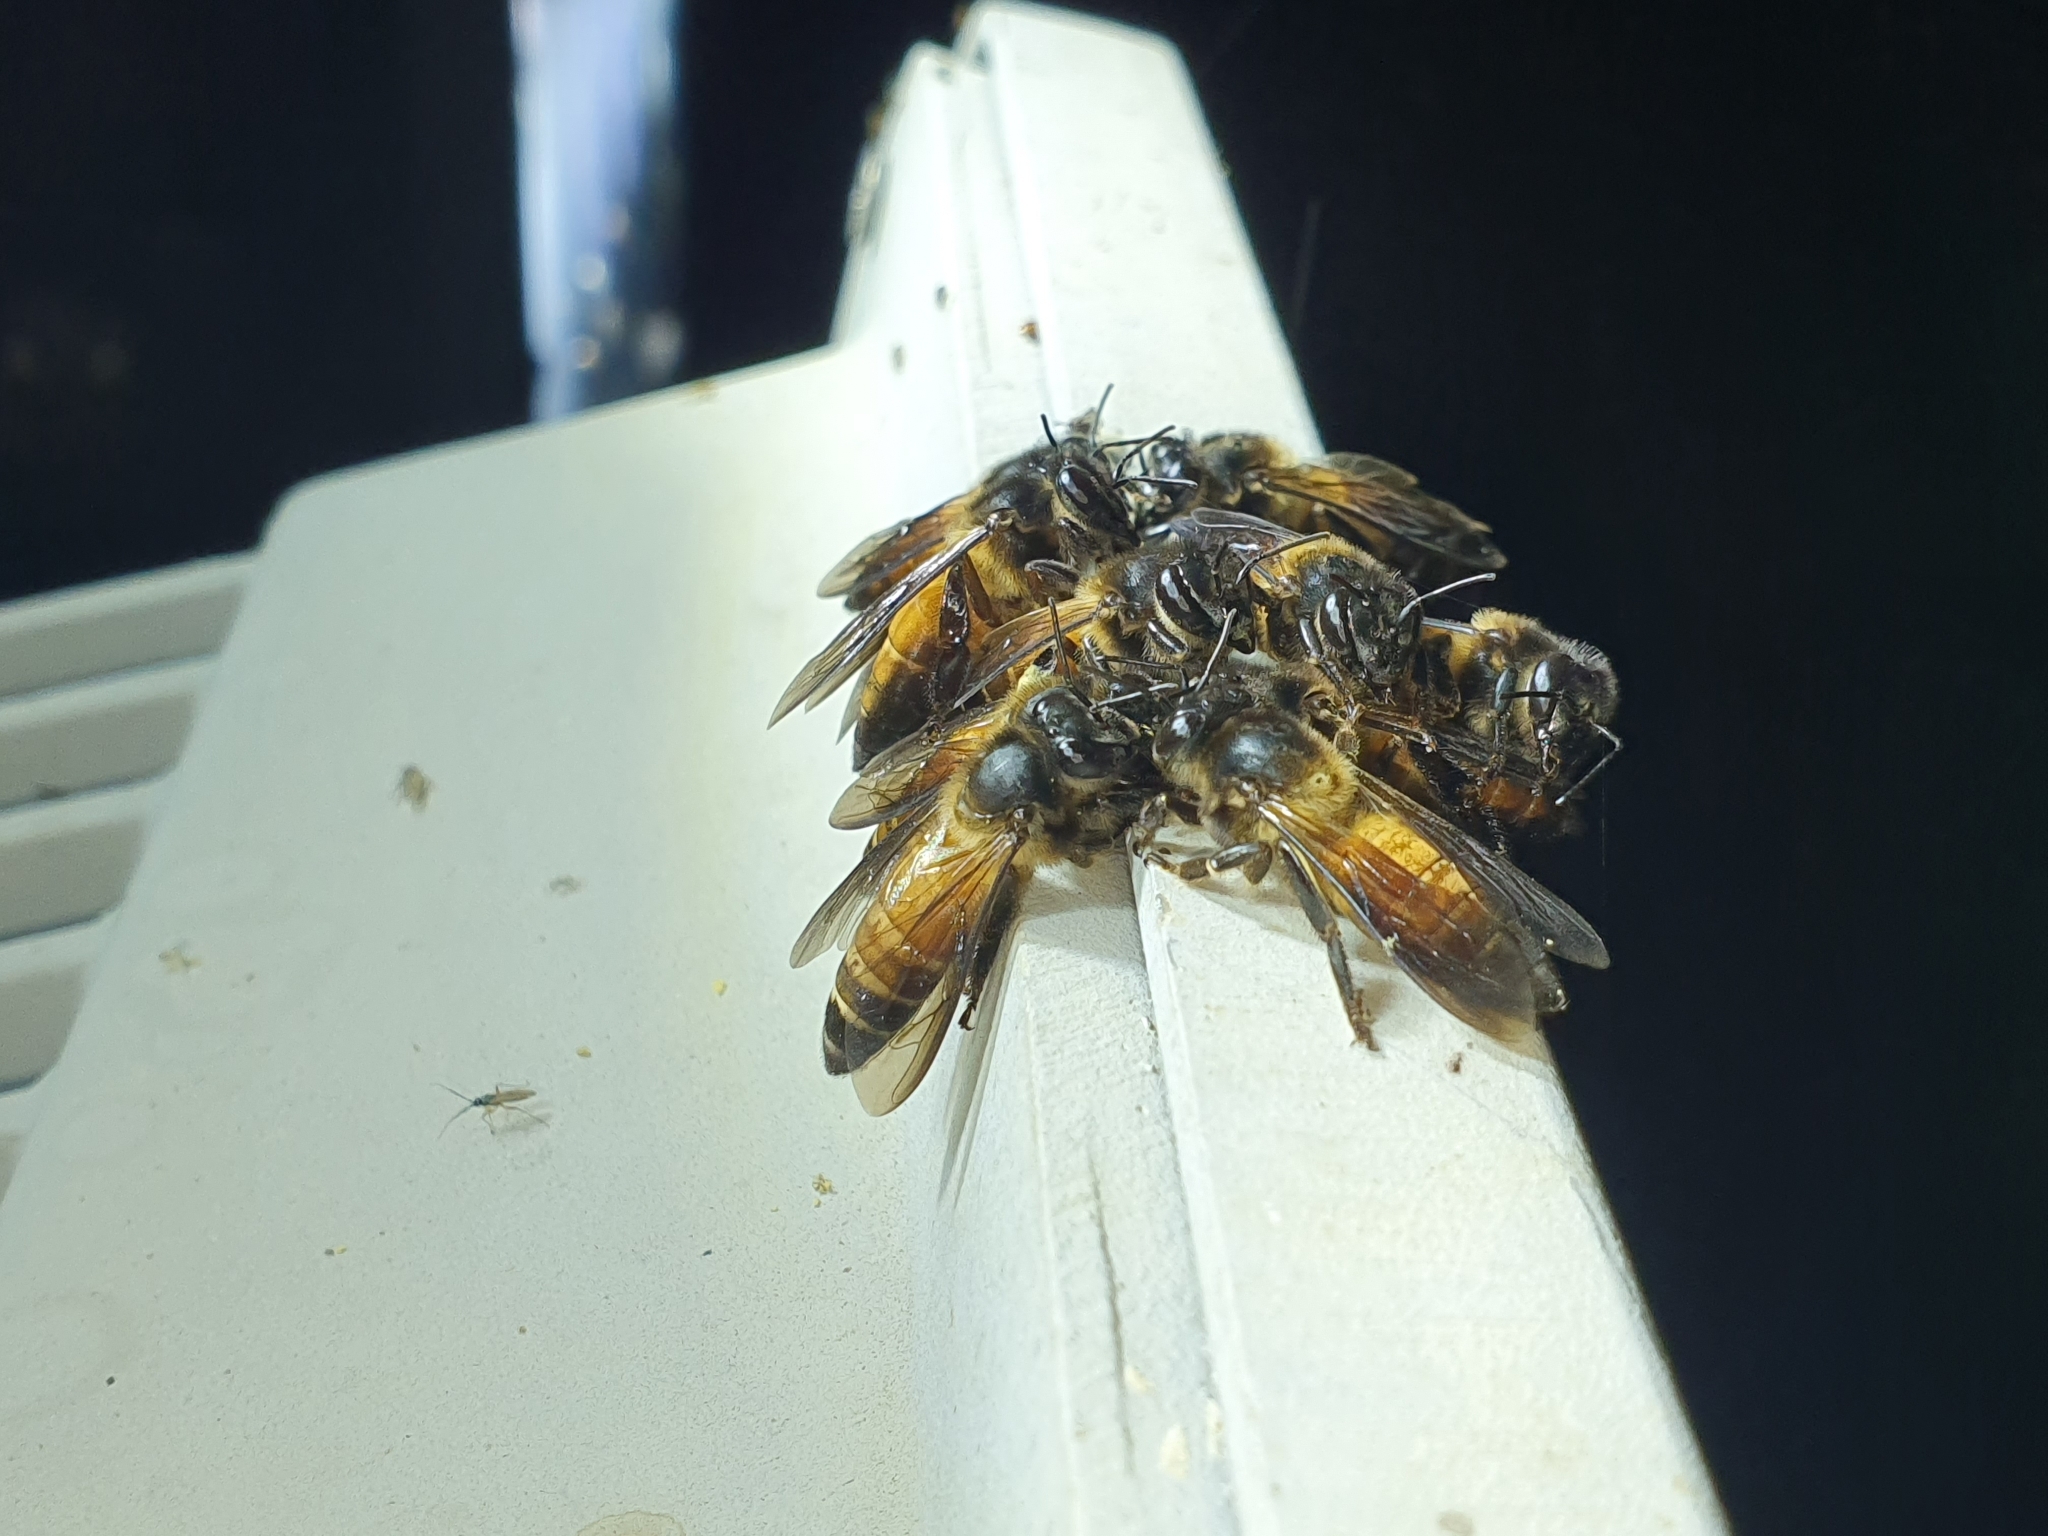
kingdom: Animalia
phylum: Arthropoda
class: Insecta
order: Hymenoptera
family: Apidae
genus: Apis
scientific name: Apis dorsata
